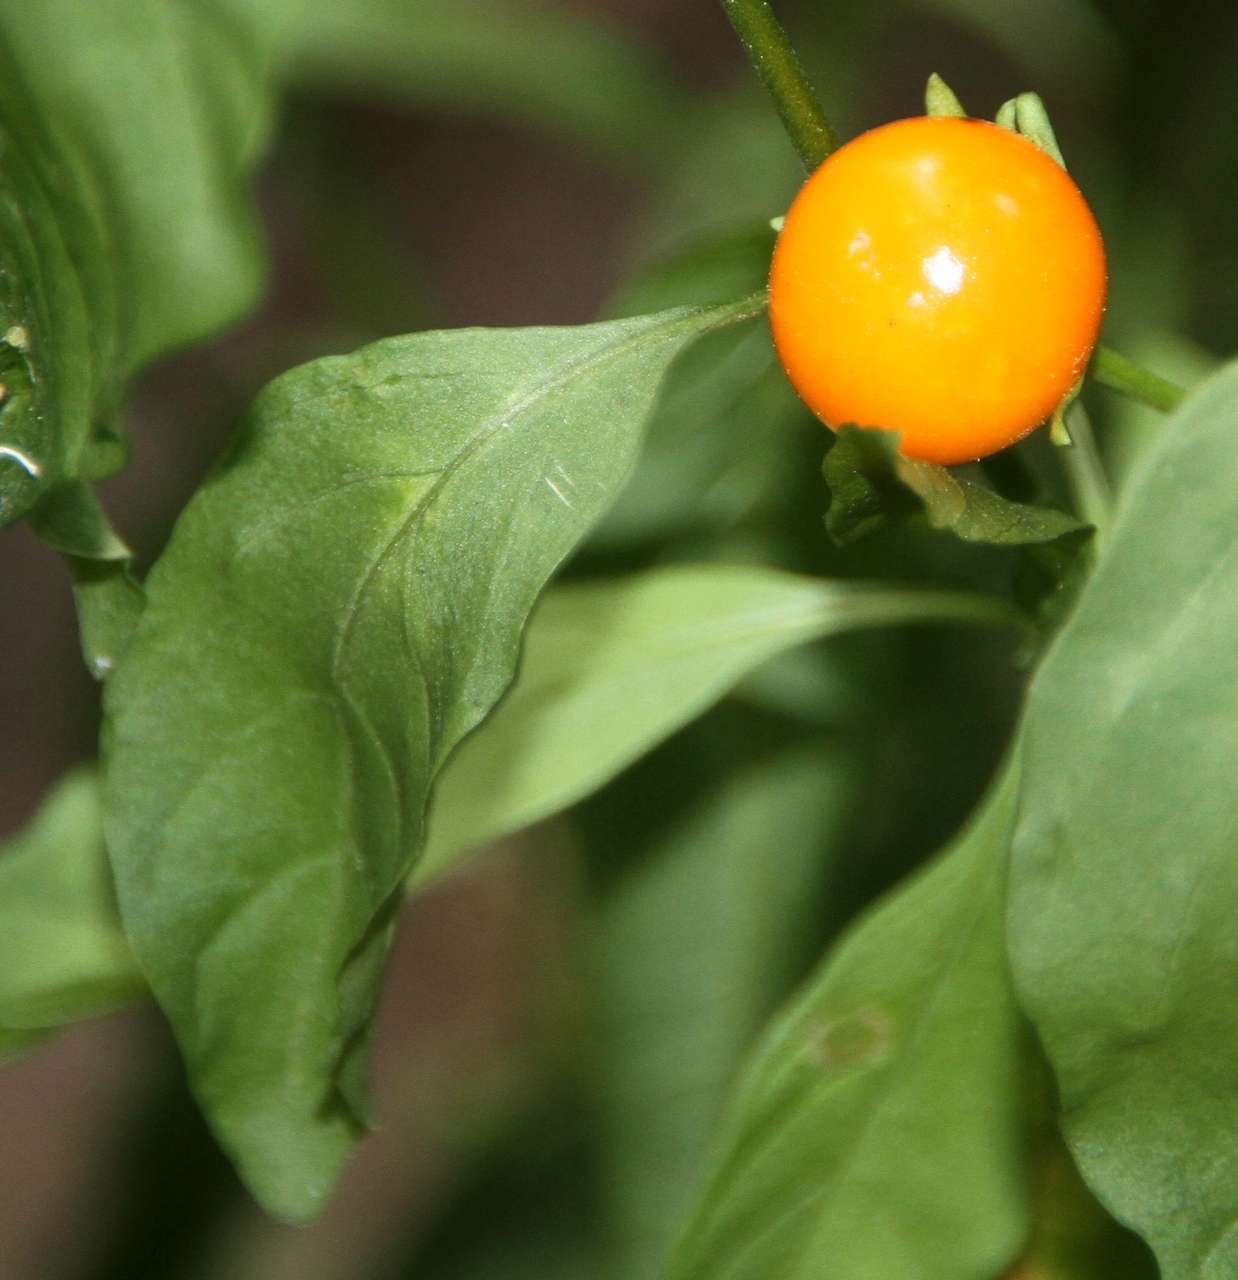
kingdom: Plantae
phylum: Tracheophyta
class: Magnoliopsida
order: Solanales
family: Solanaceae
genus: Solanum
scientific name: Solanum pseudocapsicum
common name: Jerusalem cherry
